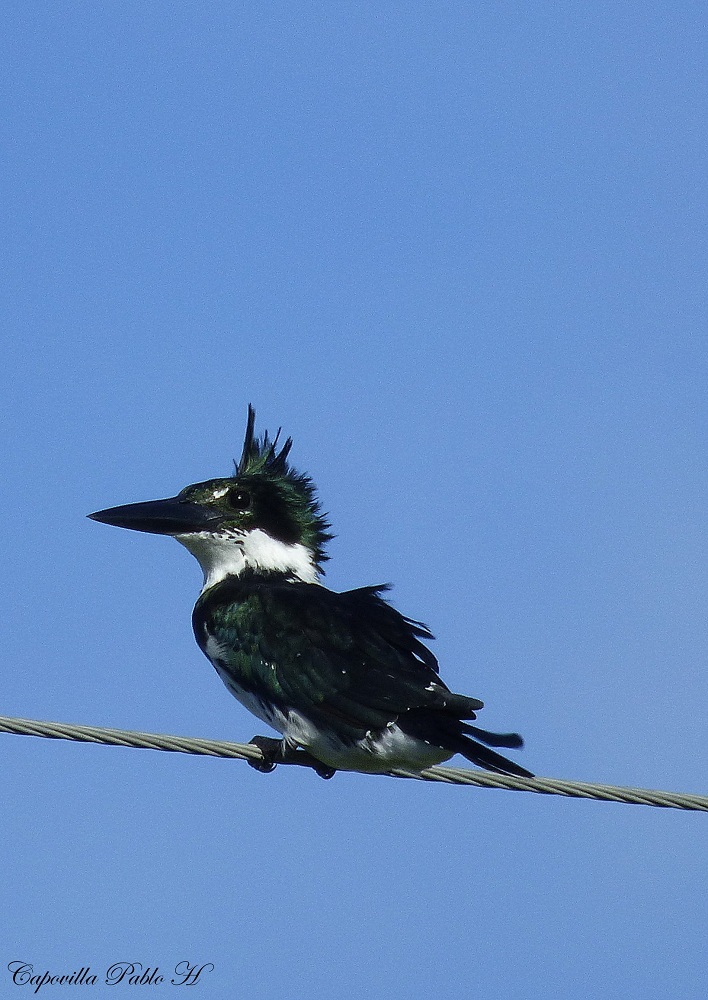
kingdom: Animalia
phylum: Chordata
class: Aves
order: Coraciiformes
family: Alcedinidae
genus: Chloroceryle
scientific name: Chloroceryle amazona
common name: Amazon kingfisher
